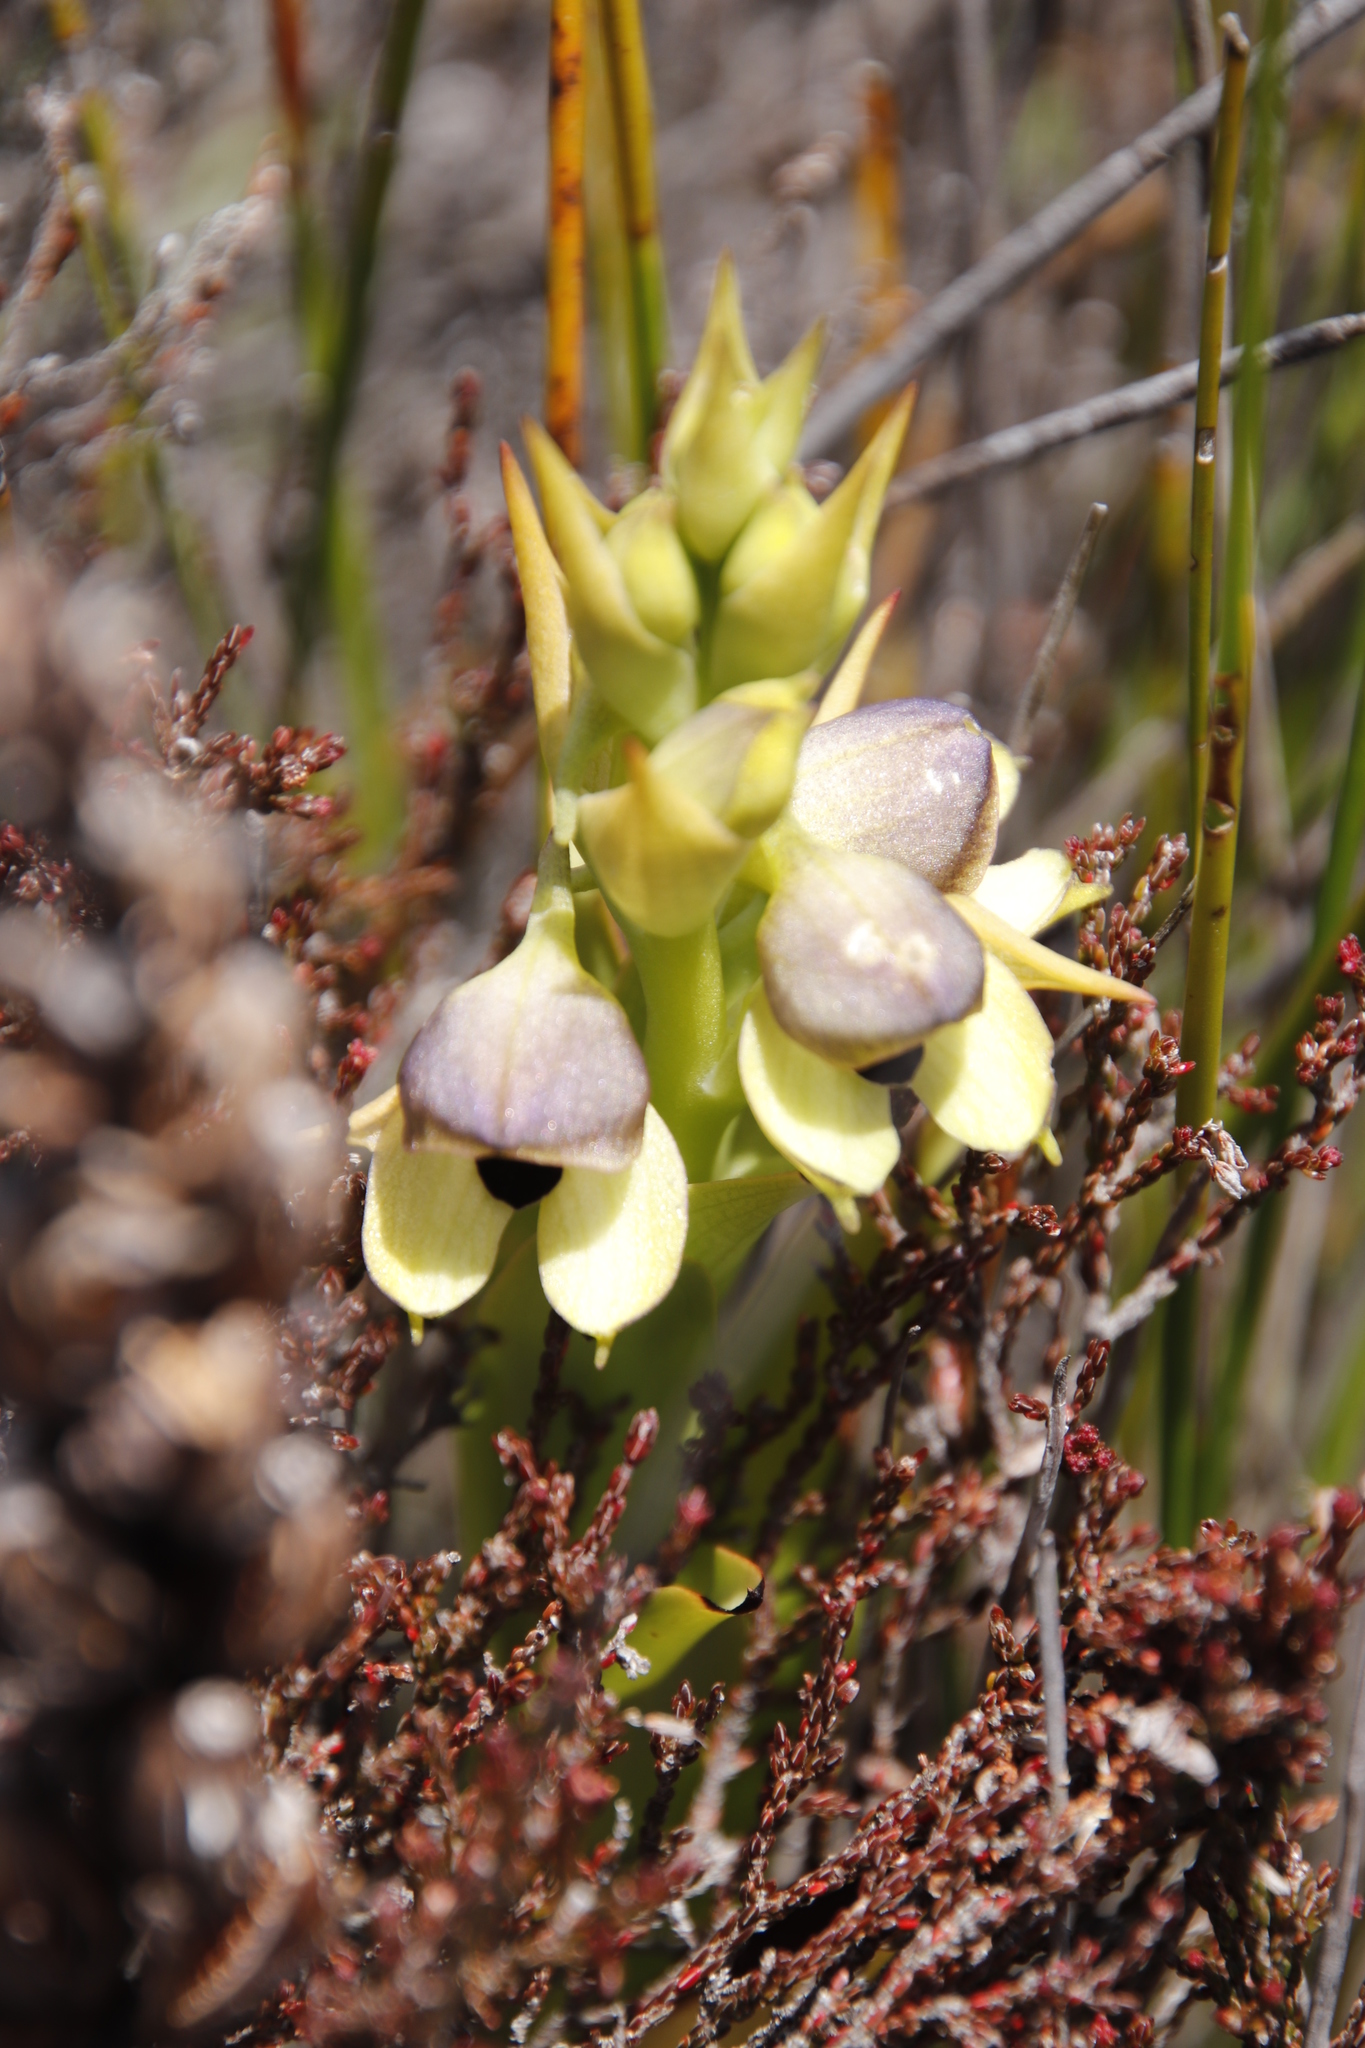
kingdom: Plantae
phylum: Tracheophyta
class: Liliopsida
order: Asparagales
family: Orchidaceae
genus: Disa
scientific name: Disa cornuta
